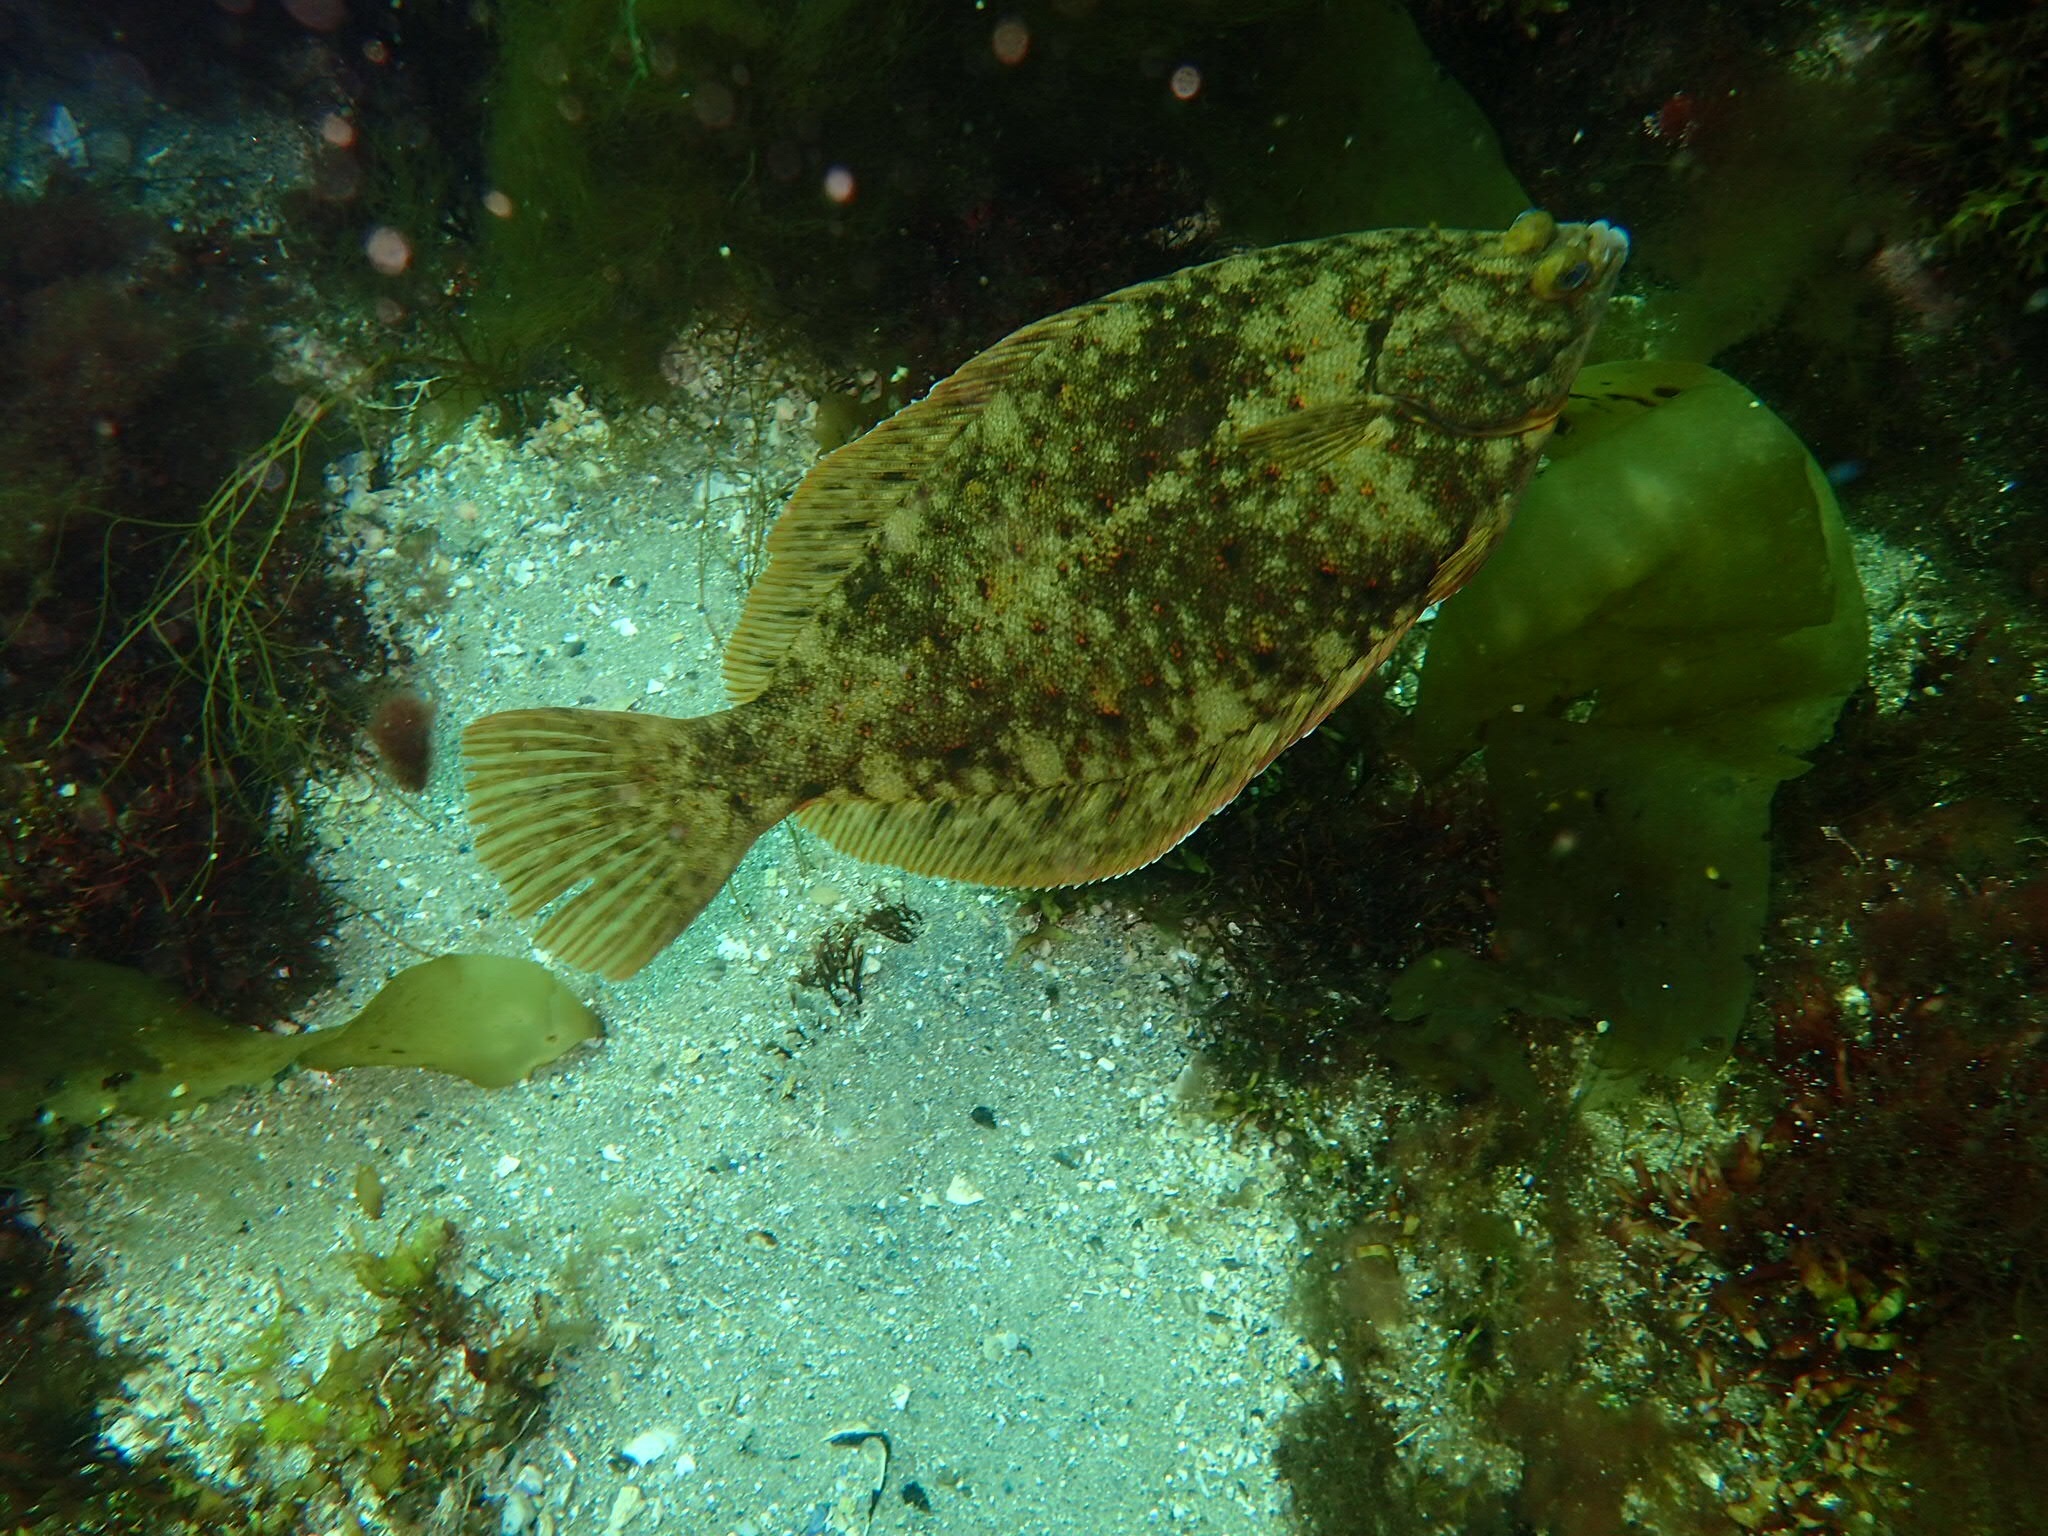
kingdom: Animalia
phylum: Chordata
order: Pleuronectiformes
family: Pleuronectidae
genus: Pseudopleuronectes
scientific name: Pseudopleuronectes americanus
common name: Black backs
